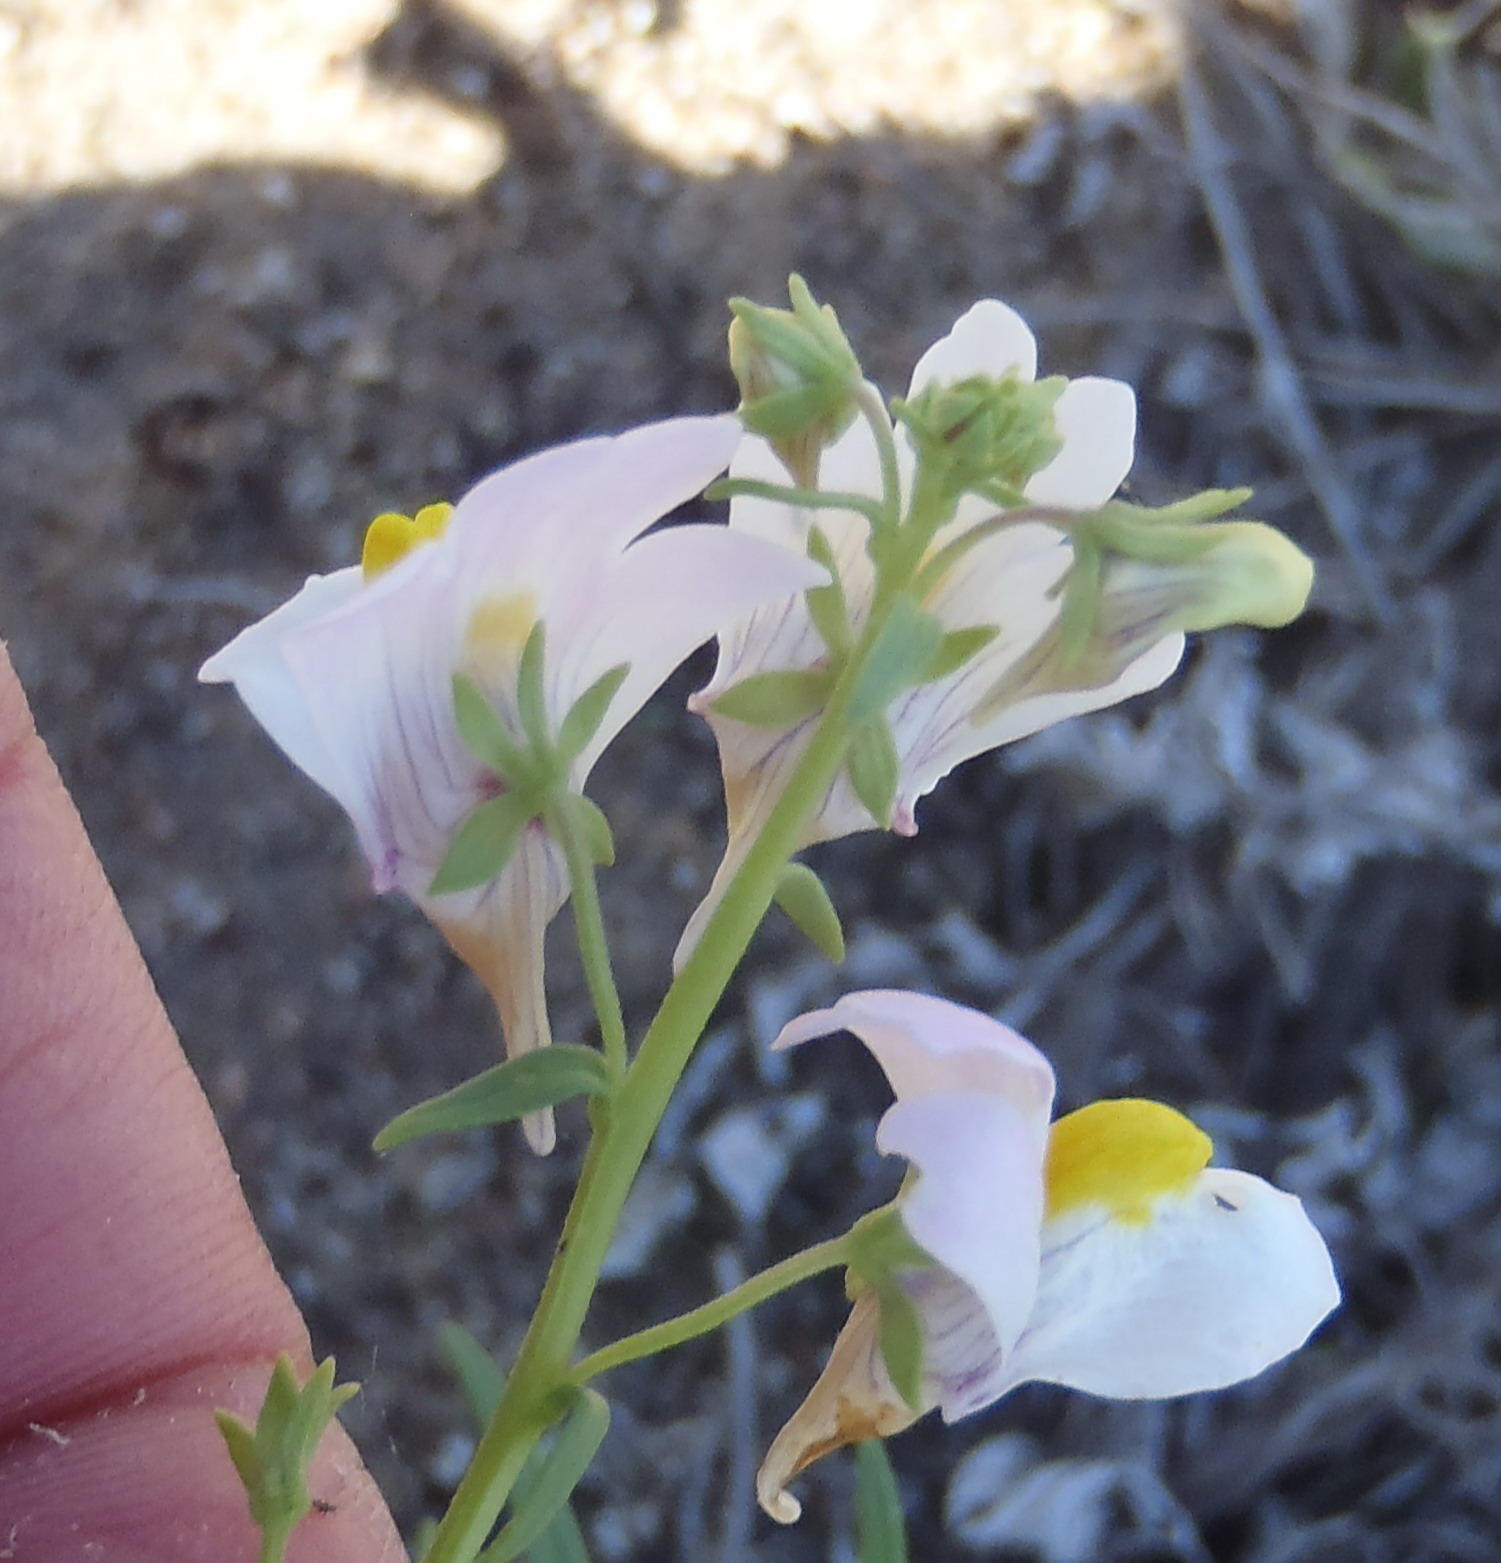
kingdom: Plantae
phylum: Tracheophyta
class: Magnoliopsida
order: Lamiales
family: Scrophulariaceae
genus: Nemesia
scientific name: Nemesia fruticans
